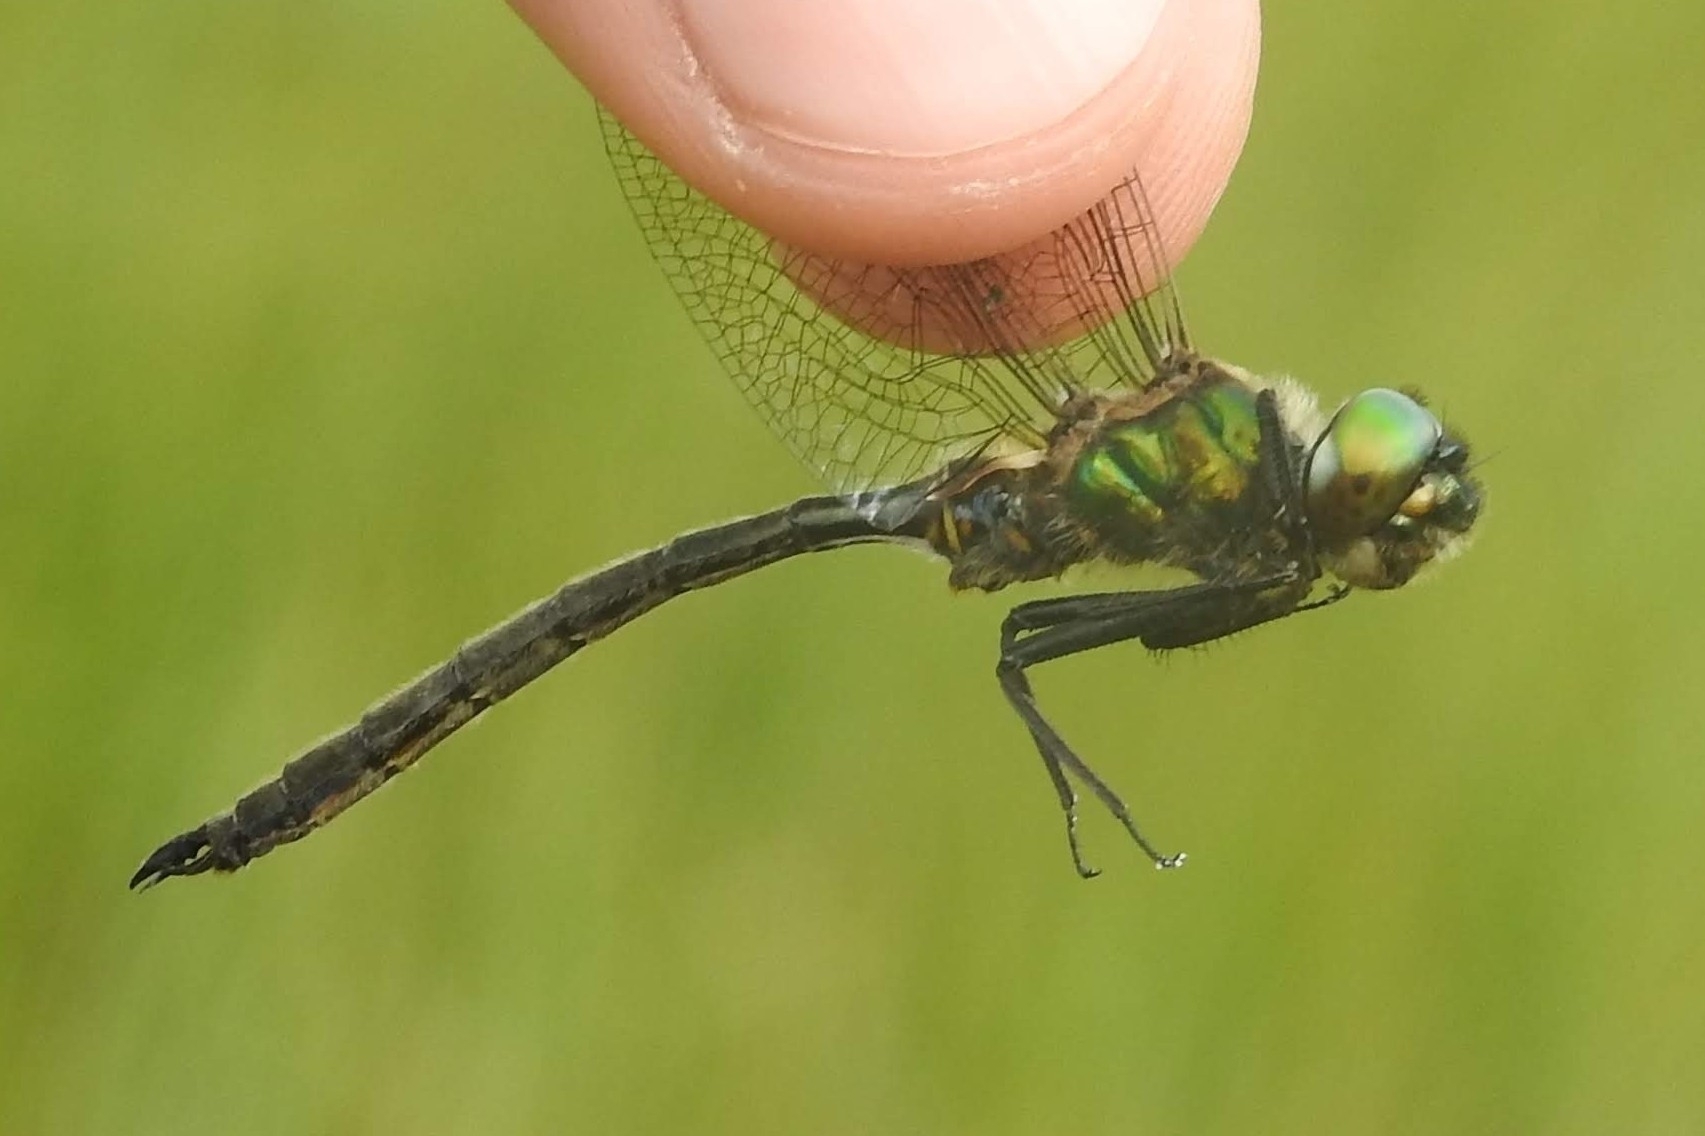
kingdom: Animalia
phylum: Arthropoda
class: Insecta
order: Odonata
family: Corduliidae
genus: Somatochlora
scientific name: Somatochlora arctica
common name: Northern emerald
